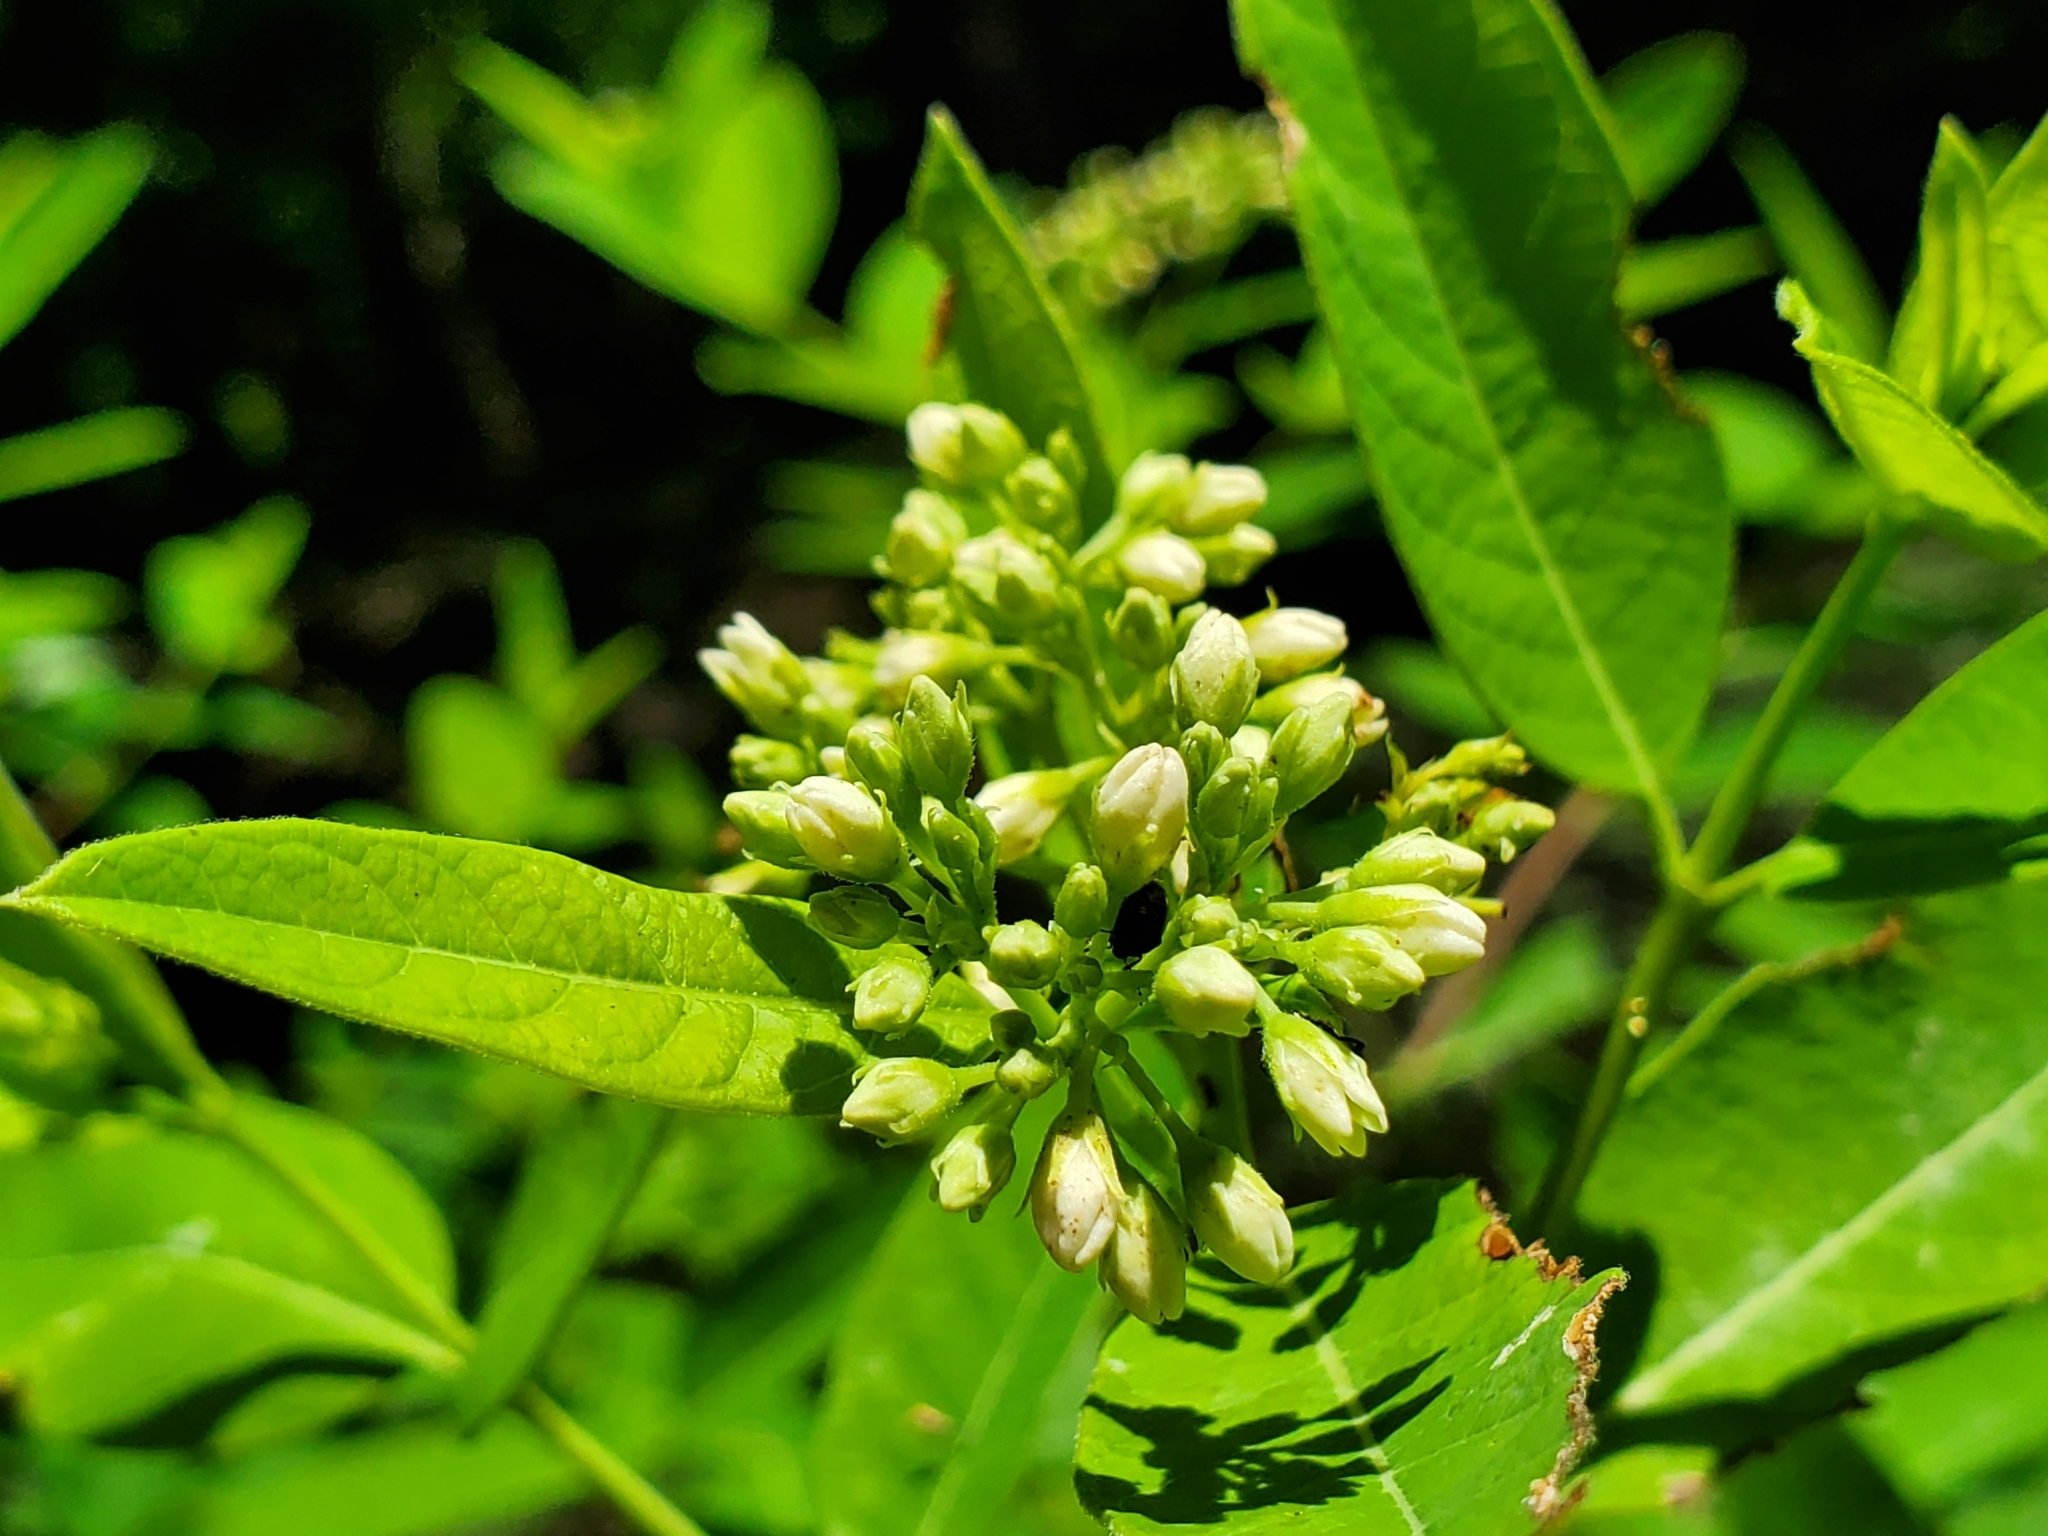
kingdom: Plantae
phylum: Tracheophyta
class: Magnoliopsida
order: Gentianales
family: Apocynaceae
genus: Apocynum
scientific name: Apocynum cannabinum
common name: Hemp dogbane
